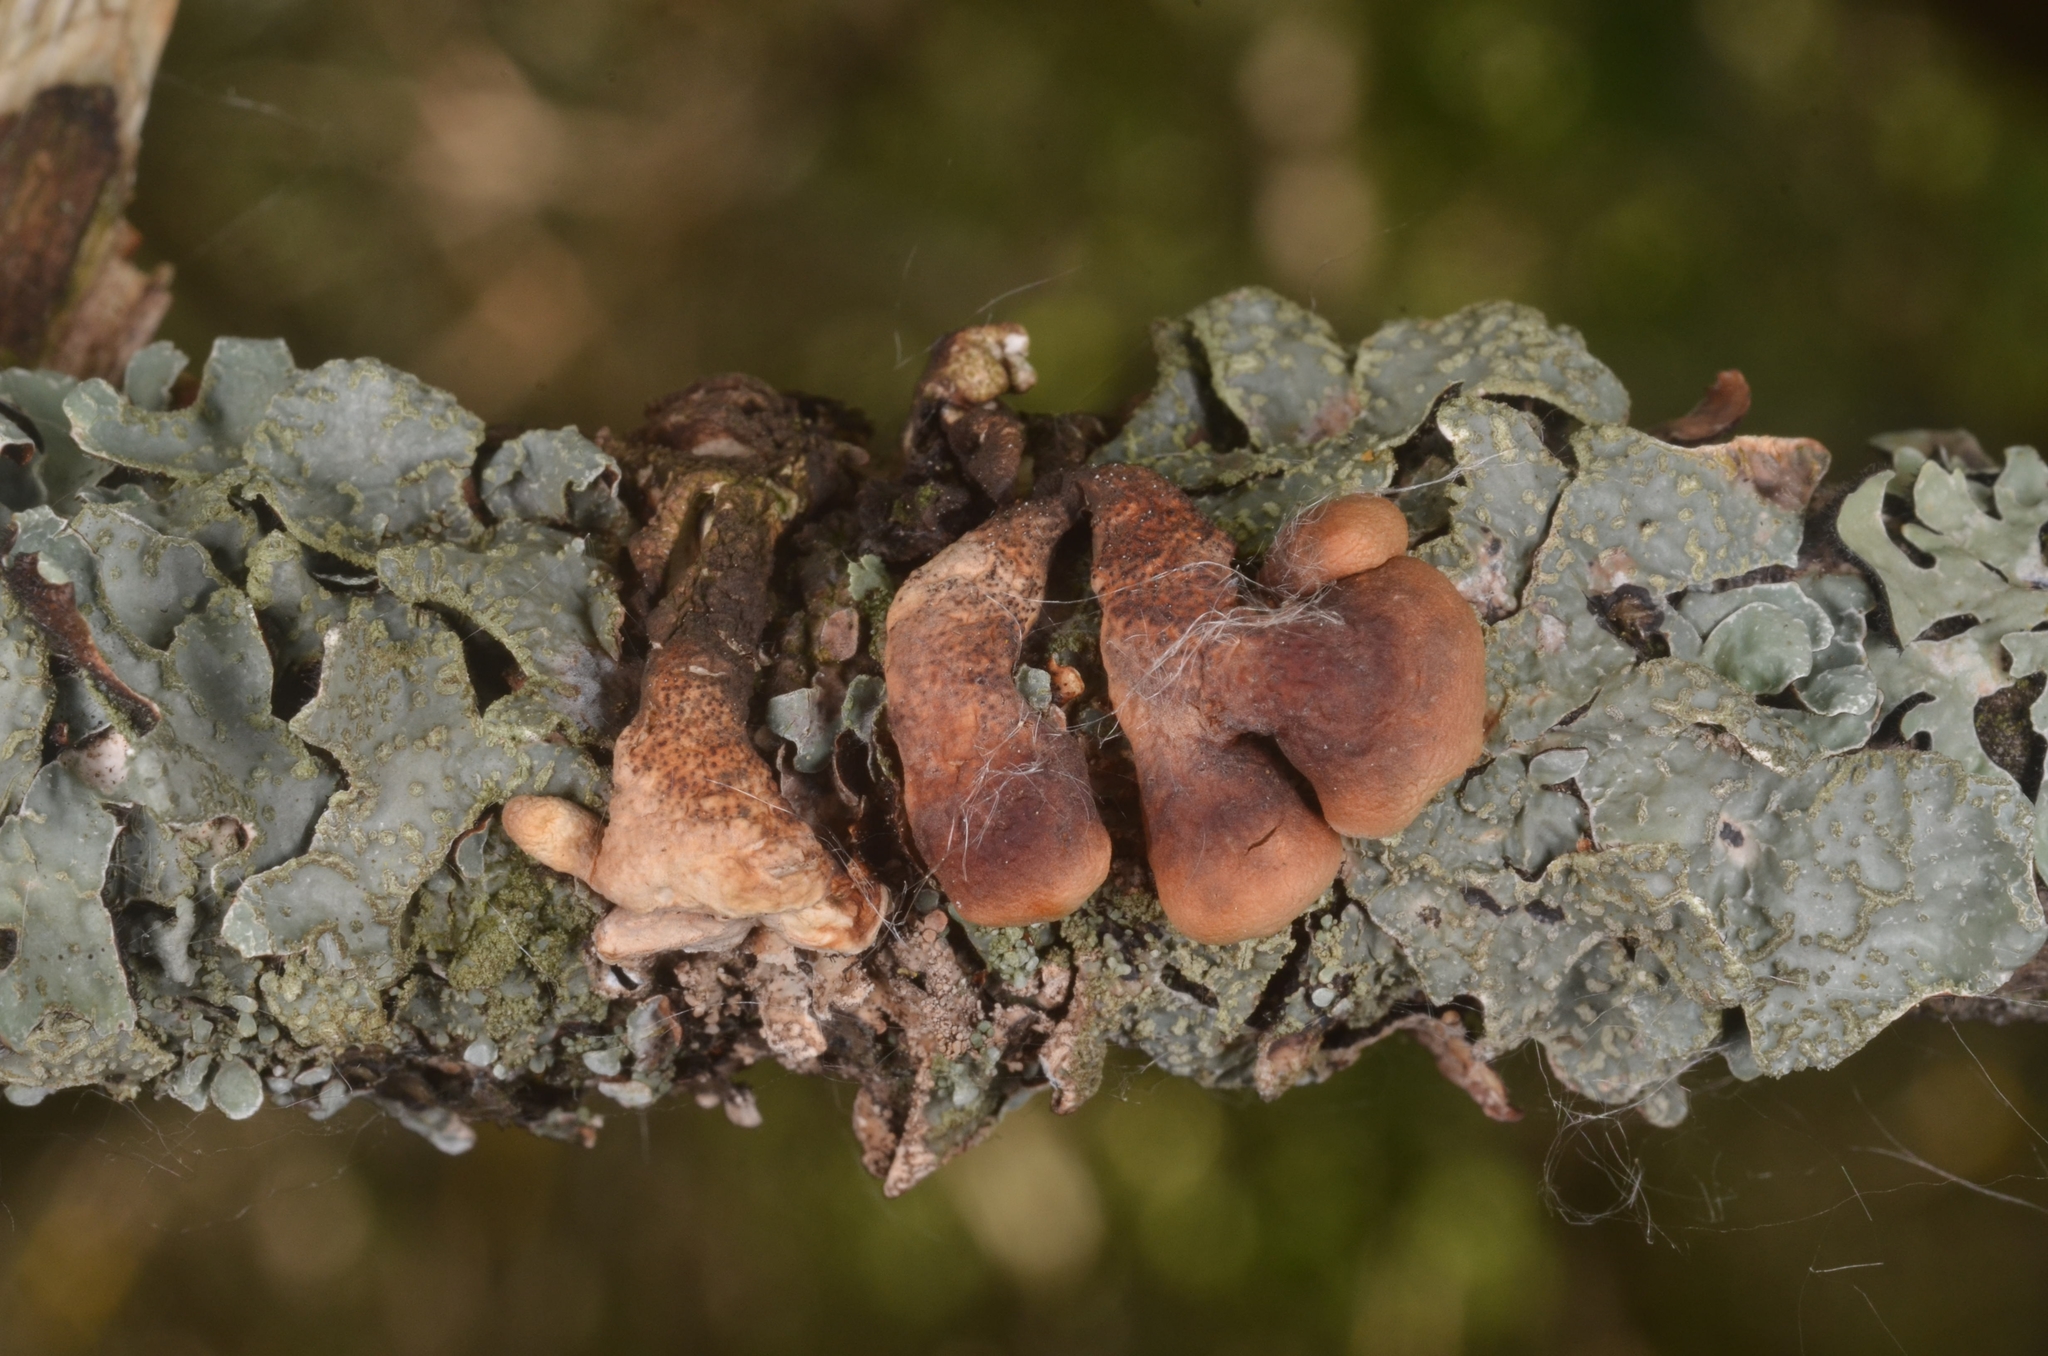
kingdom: Fungi
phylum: Ascomycota
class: Sordariomycetes
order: Hypocreales
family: Hypocreaceae
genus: Hypocreopsis
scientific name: Hypocreopsis lichenoides
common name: Willow gloves
